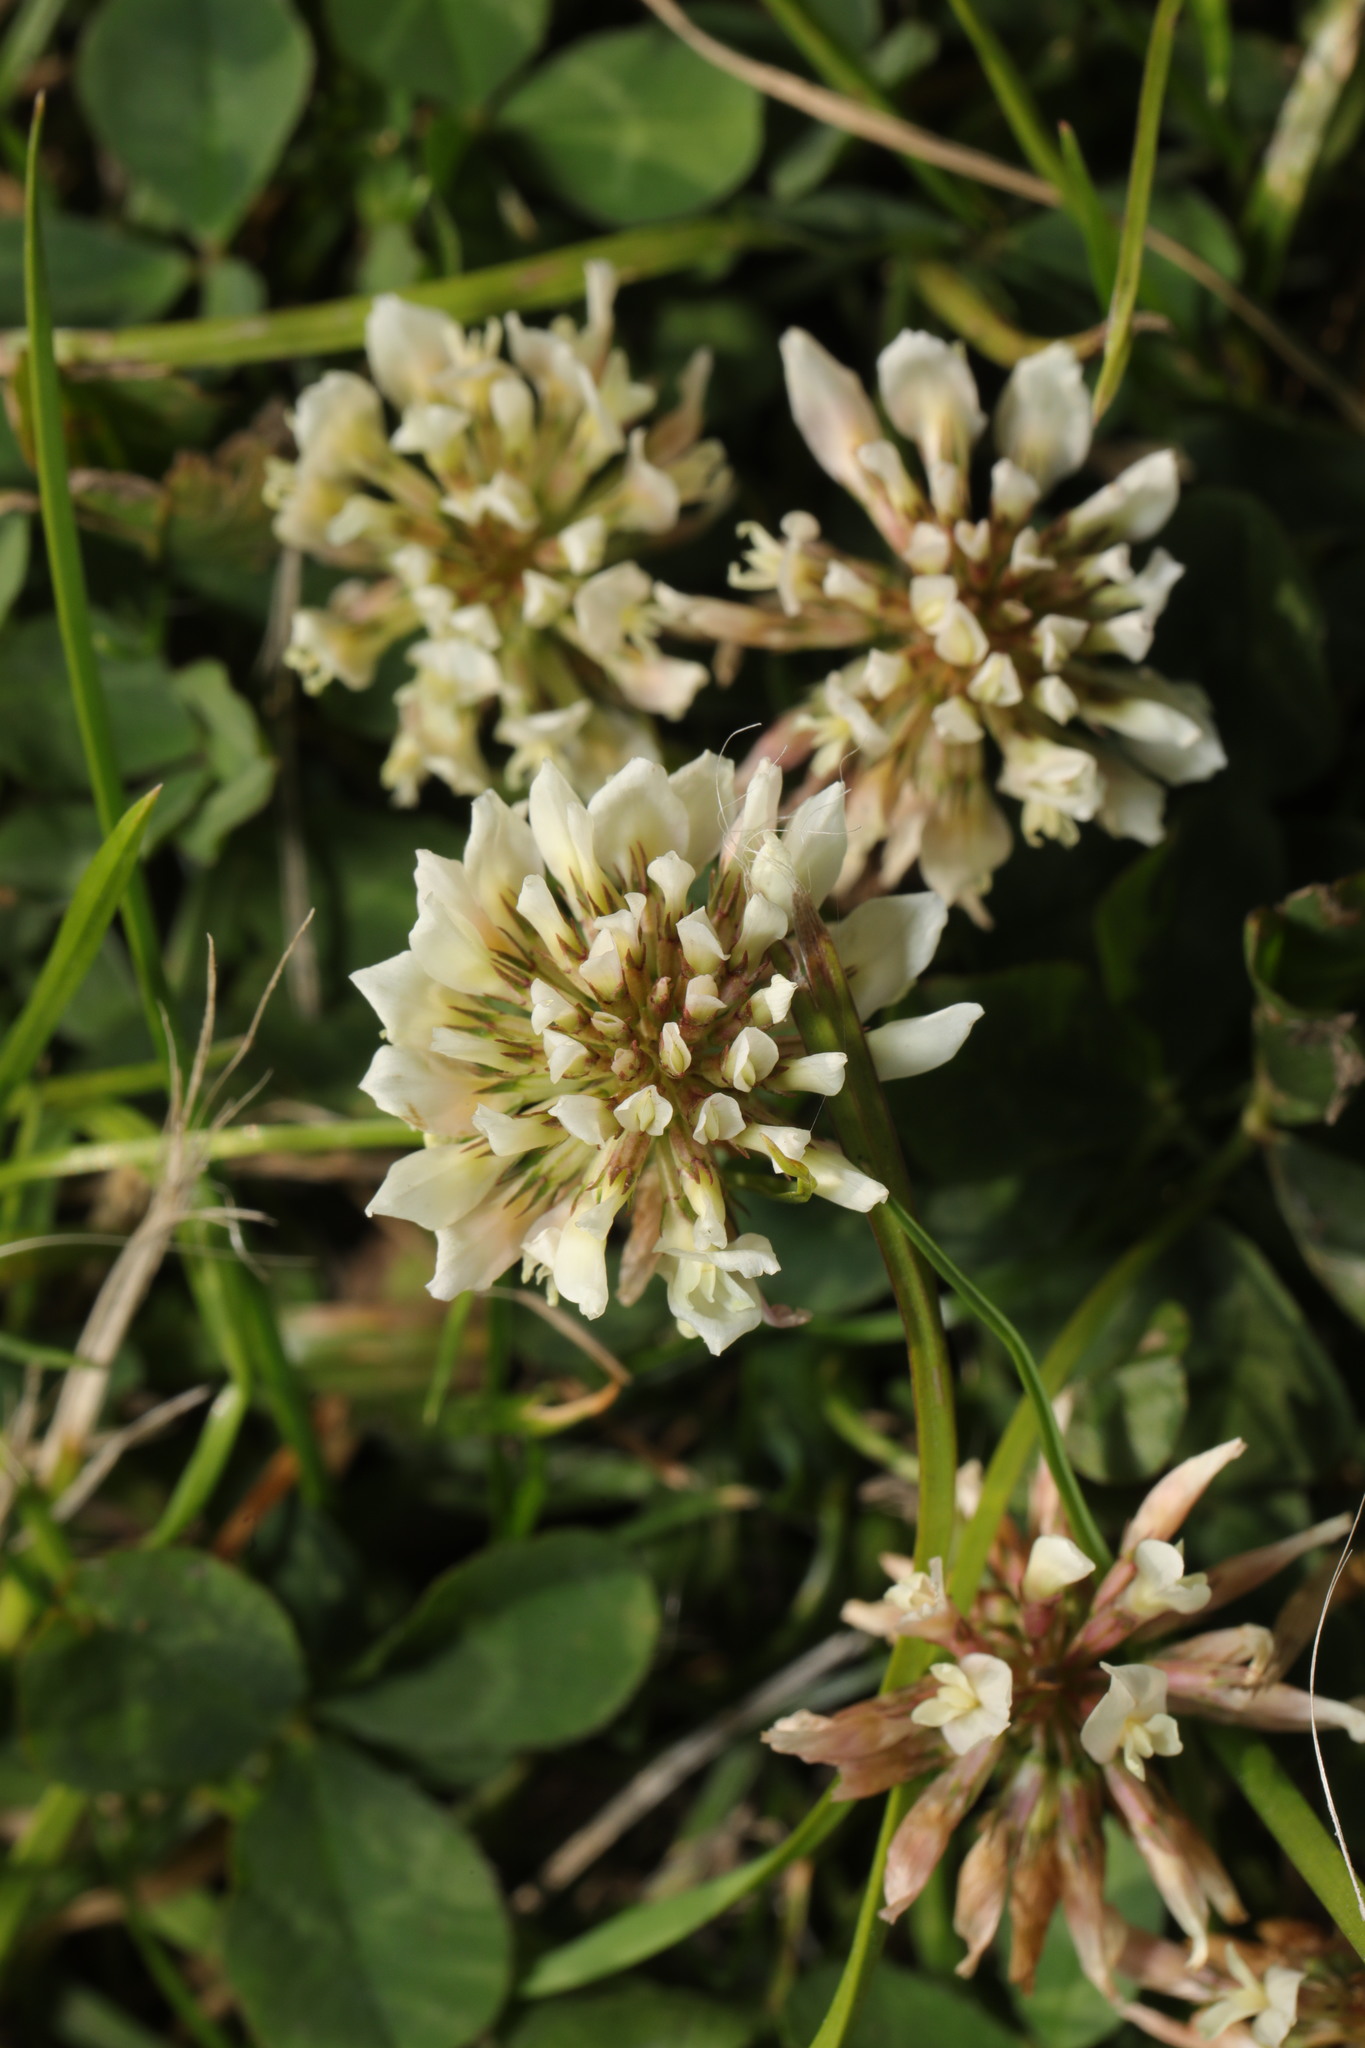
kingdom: Plantae
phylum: Tracheophyta
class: Magnoliopsida
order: Fabales
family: Fabaceae
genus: Trifolium
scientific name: Trifolium repens
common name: White clover
